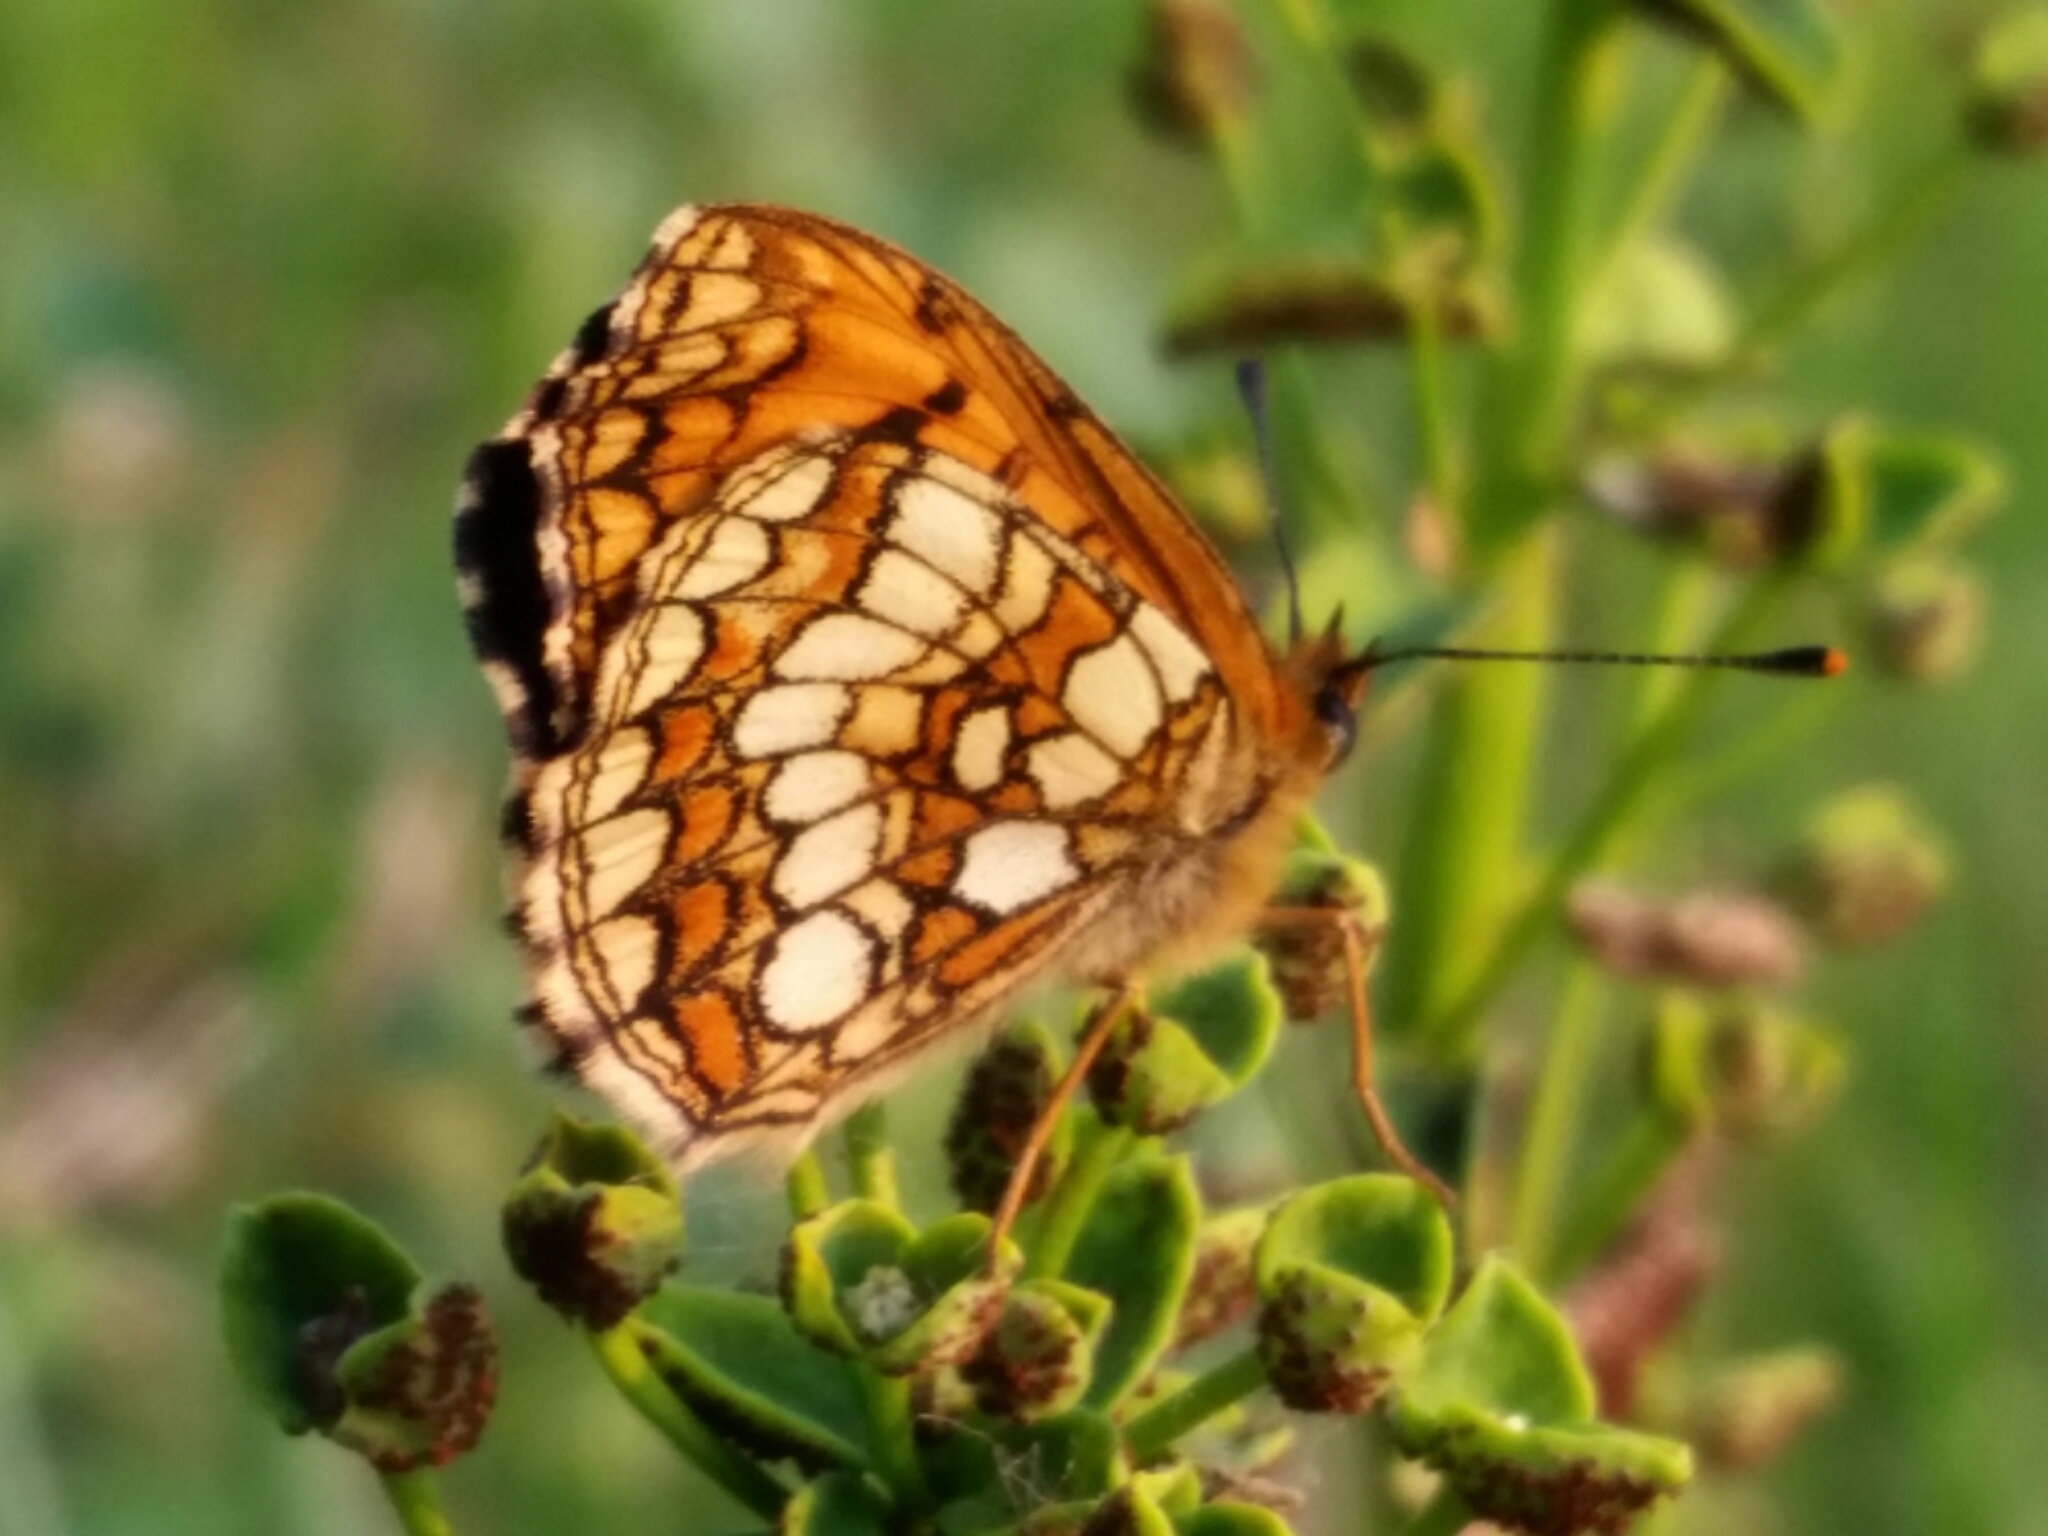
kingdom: Animalia
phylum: Arthropoda
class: Insecta
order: Lepidoptera
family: Nymphalidae
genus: Mellicta
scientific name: Mellicta athalia
